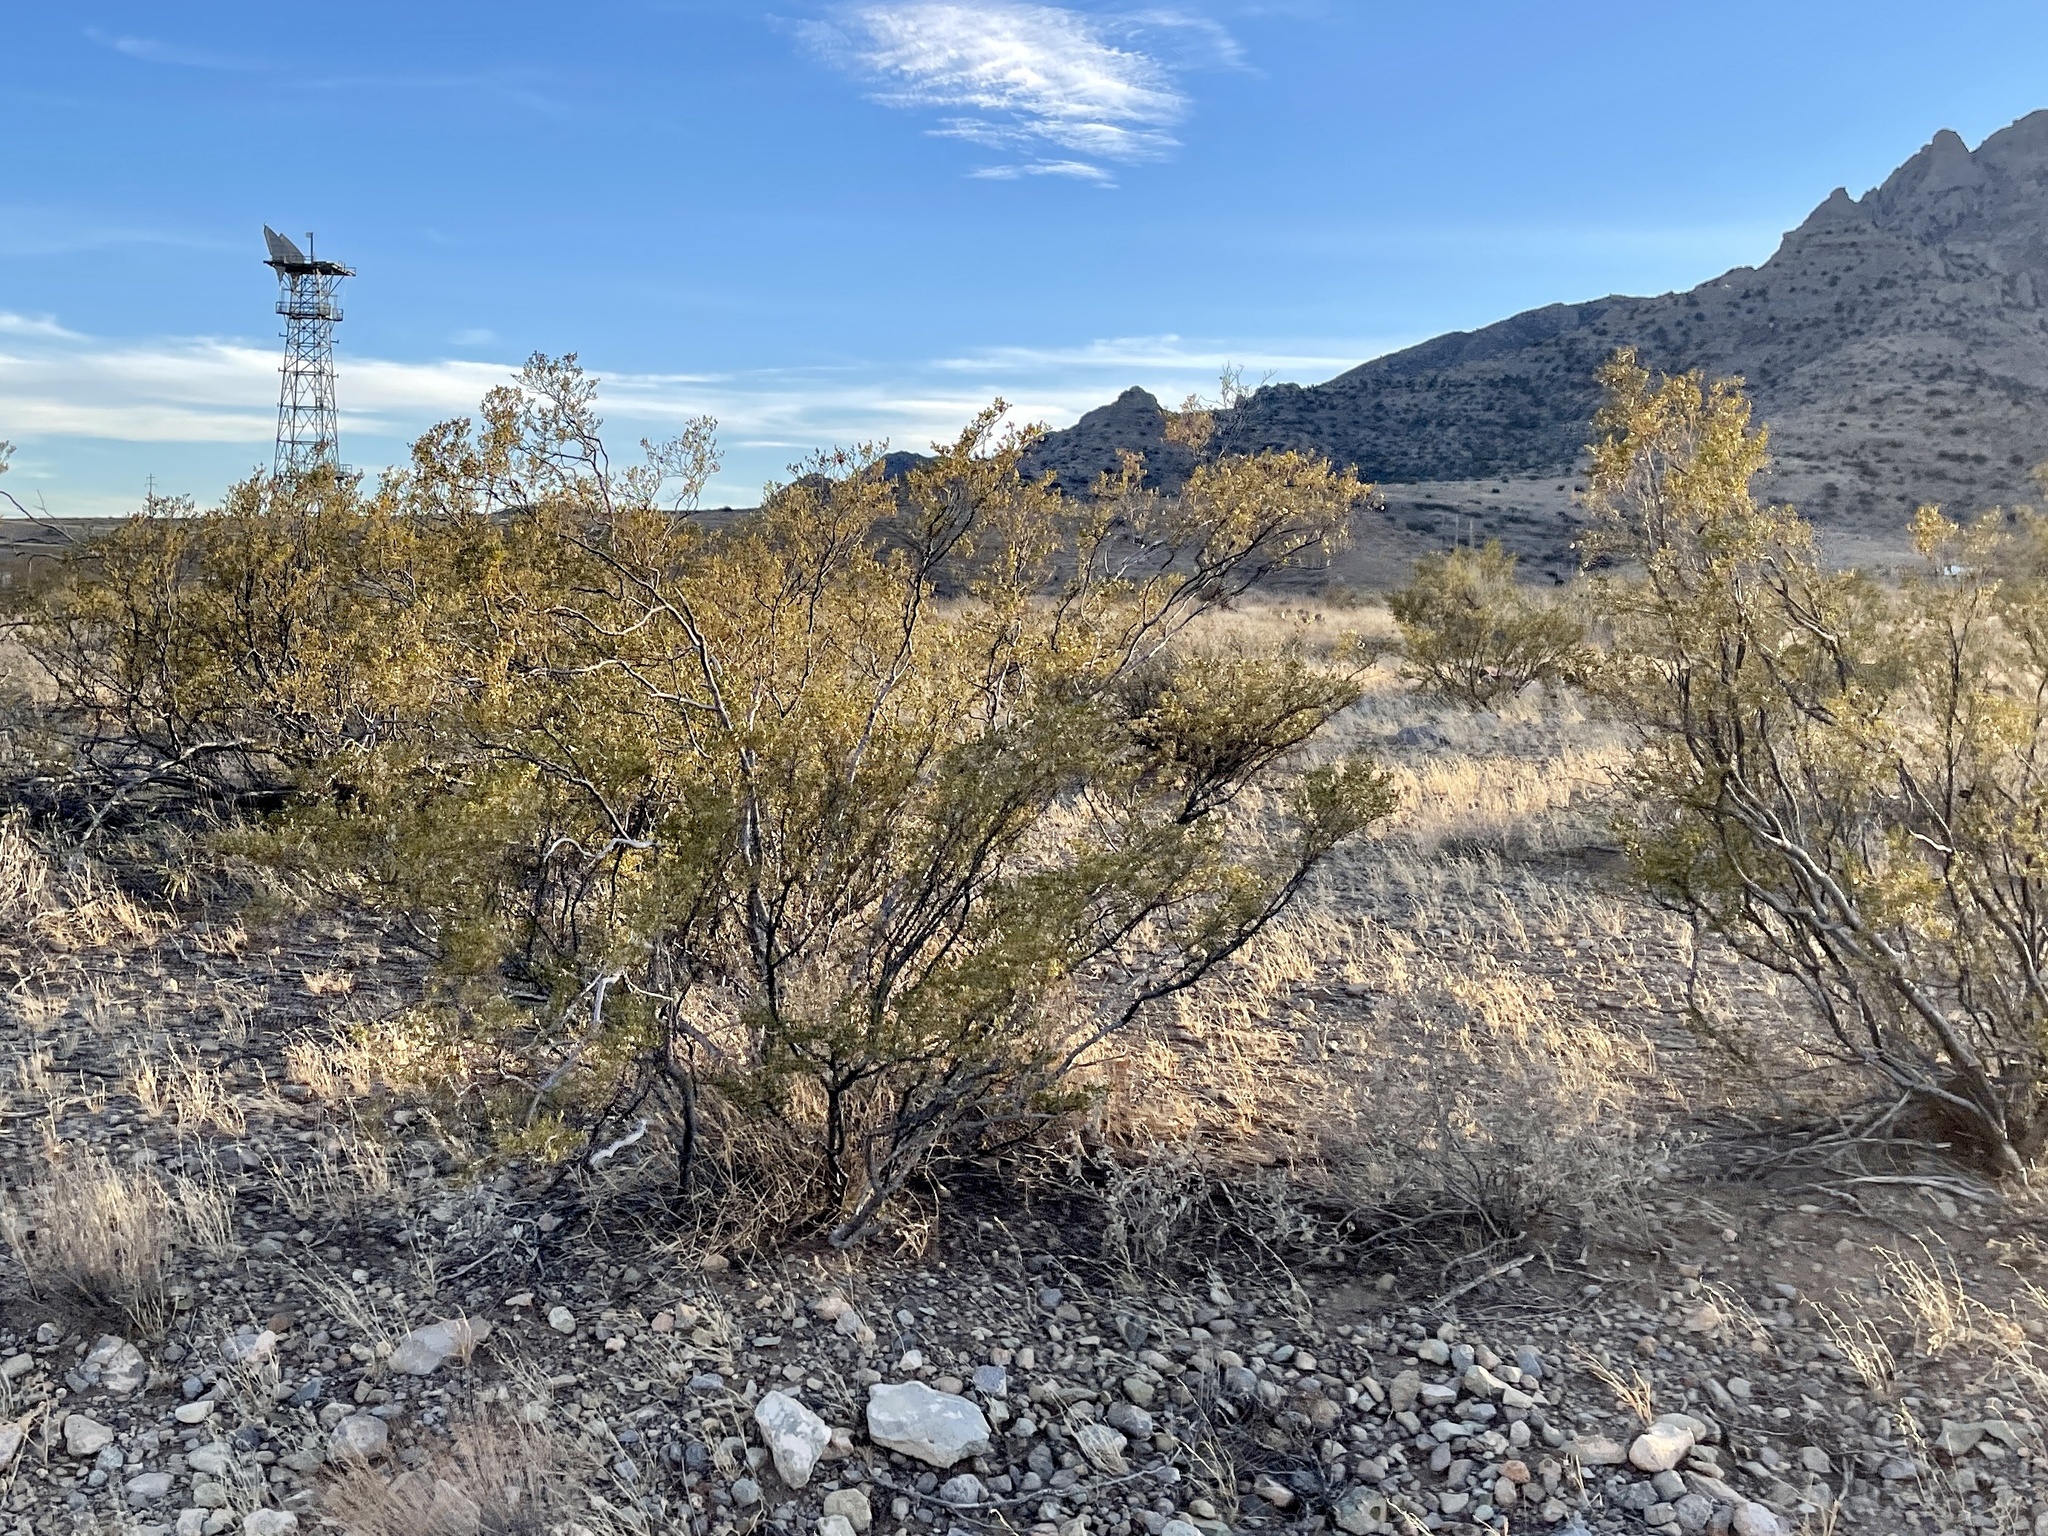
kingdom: Plantae
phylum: Tracheophyta
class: Magnoliopsida
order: Zygophyllales
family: Zygophyllaceae
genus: Larrea
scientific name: Larrea tridentata
